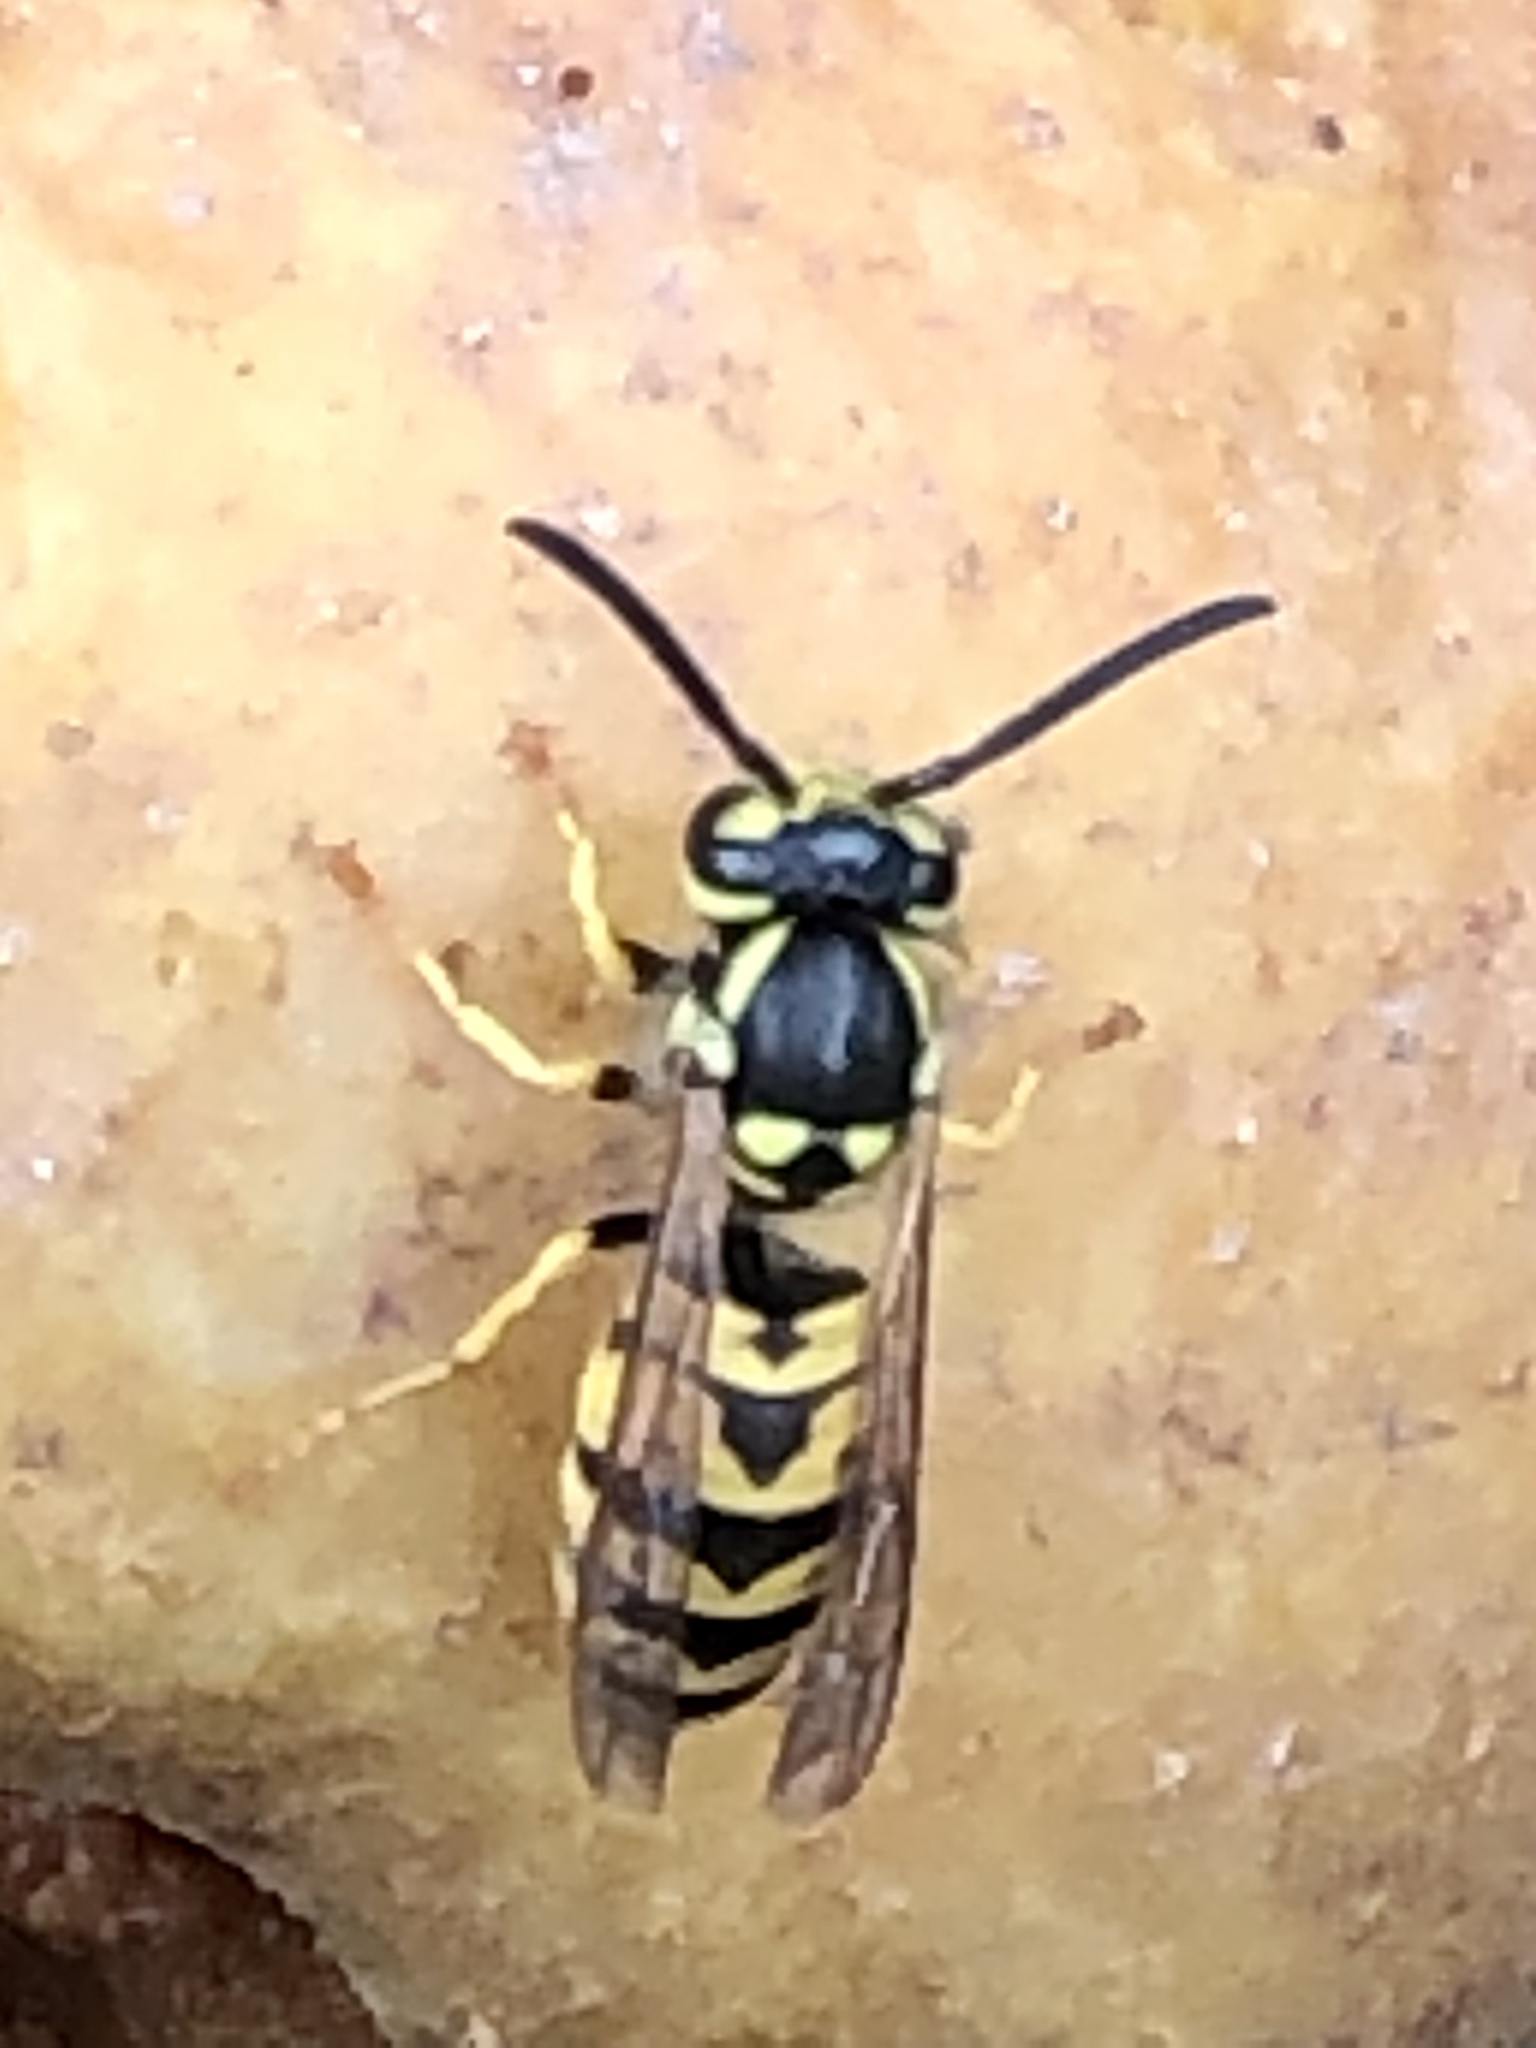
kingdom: Animalia
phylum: Arthropoda
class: Insecta
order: Hymenoptera
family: Vespidae
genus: Vespula
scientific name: Vespula germanica
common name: German wasp
